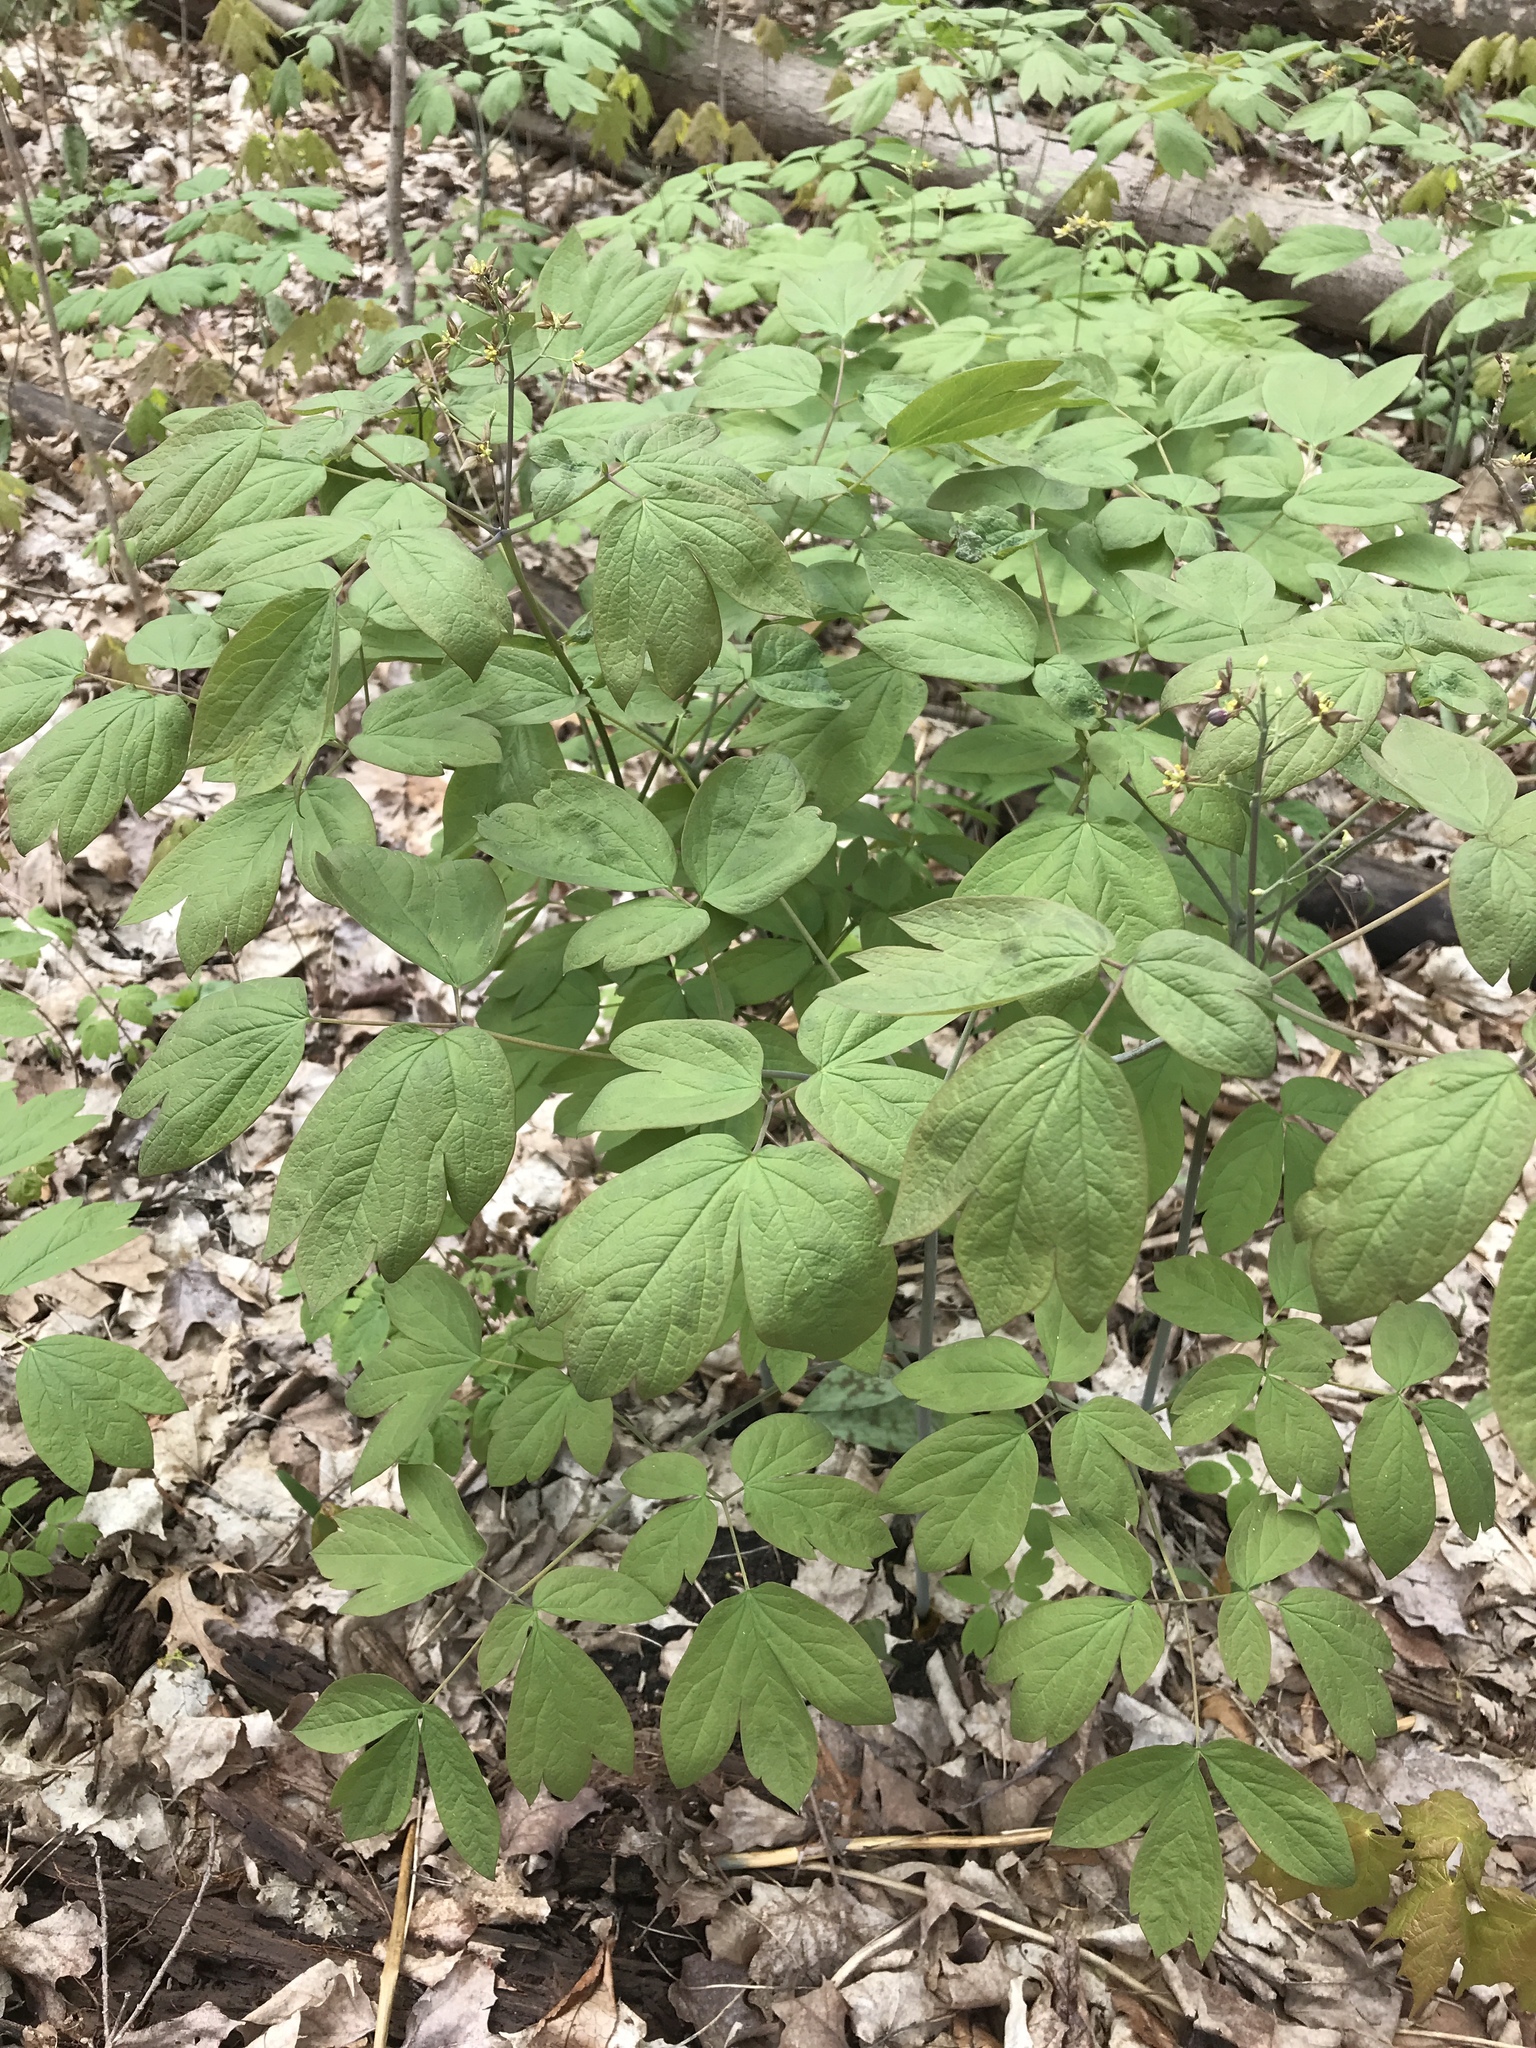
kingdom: Plantae
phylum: Tracheophyta
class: Magnoliopsida
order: Ranunculales
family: Berberidaceae
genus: Caulophyllum
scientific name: Caulophyllum thalictroides
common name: Blue cohosh
